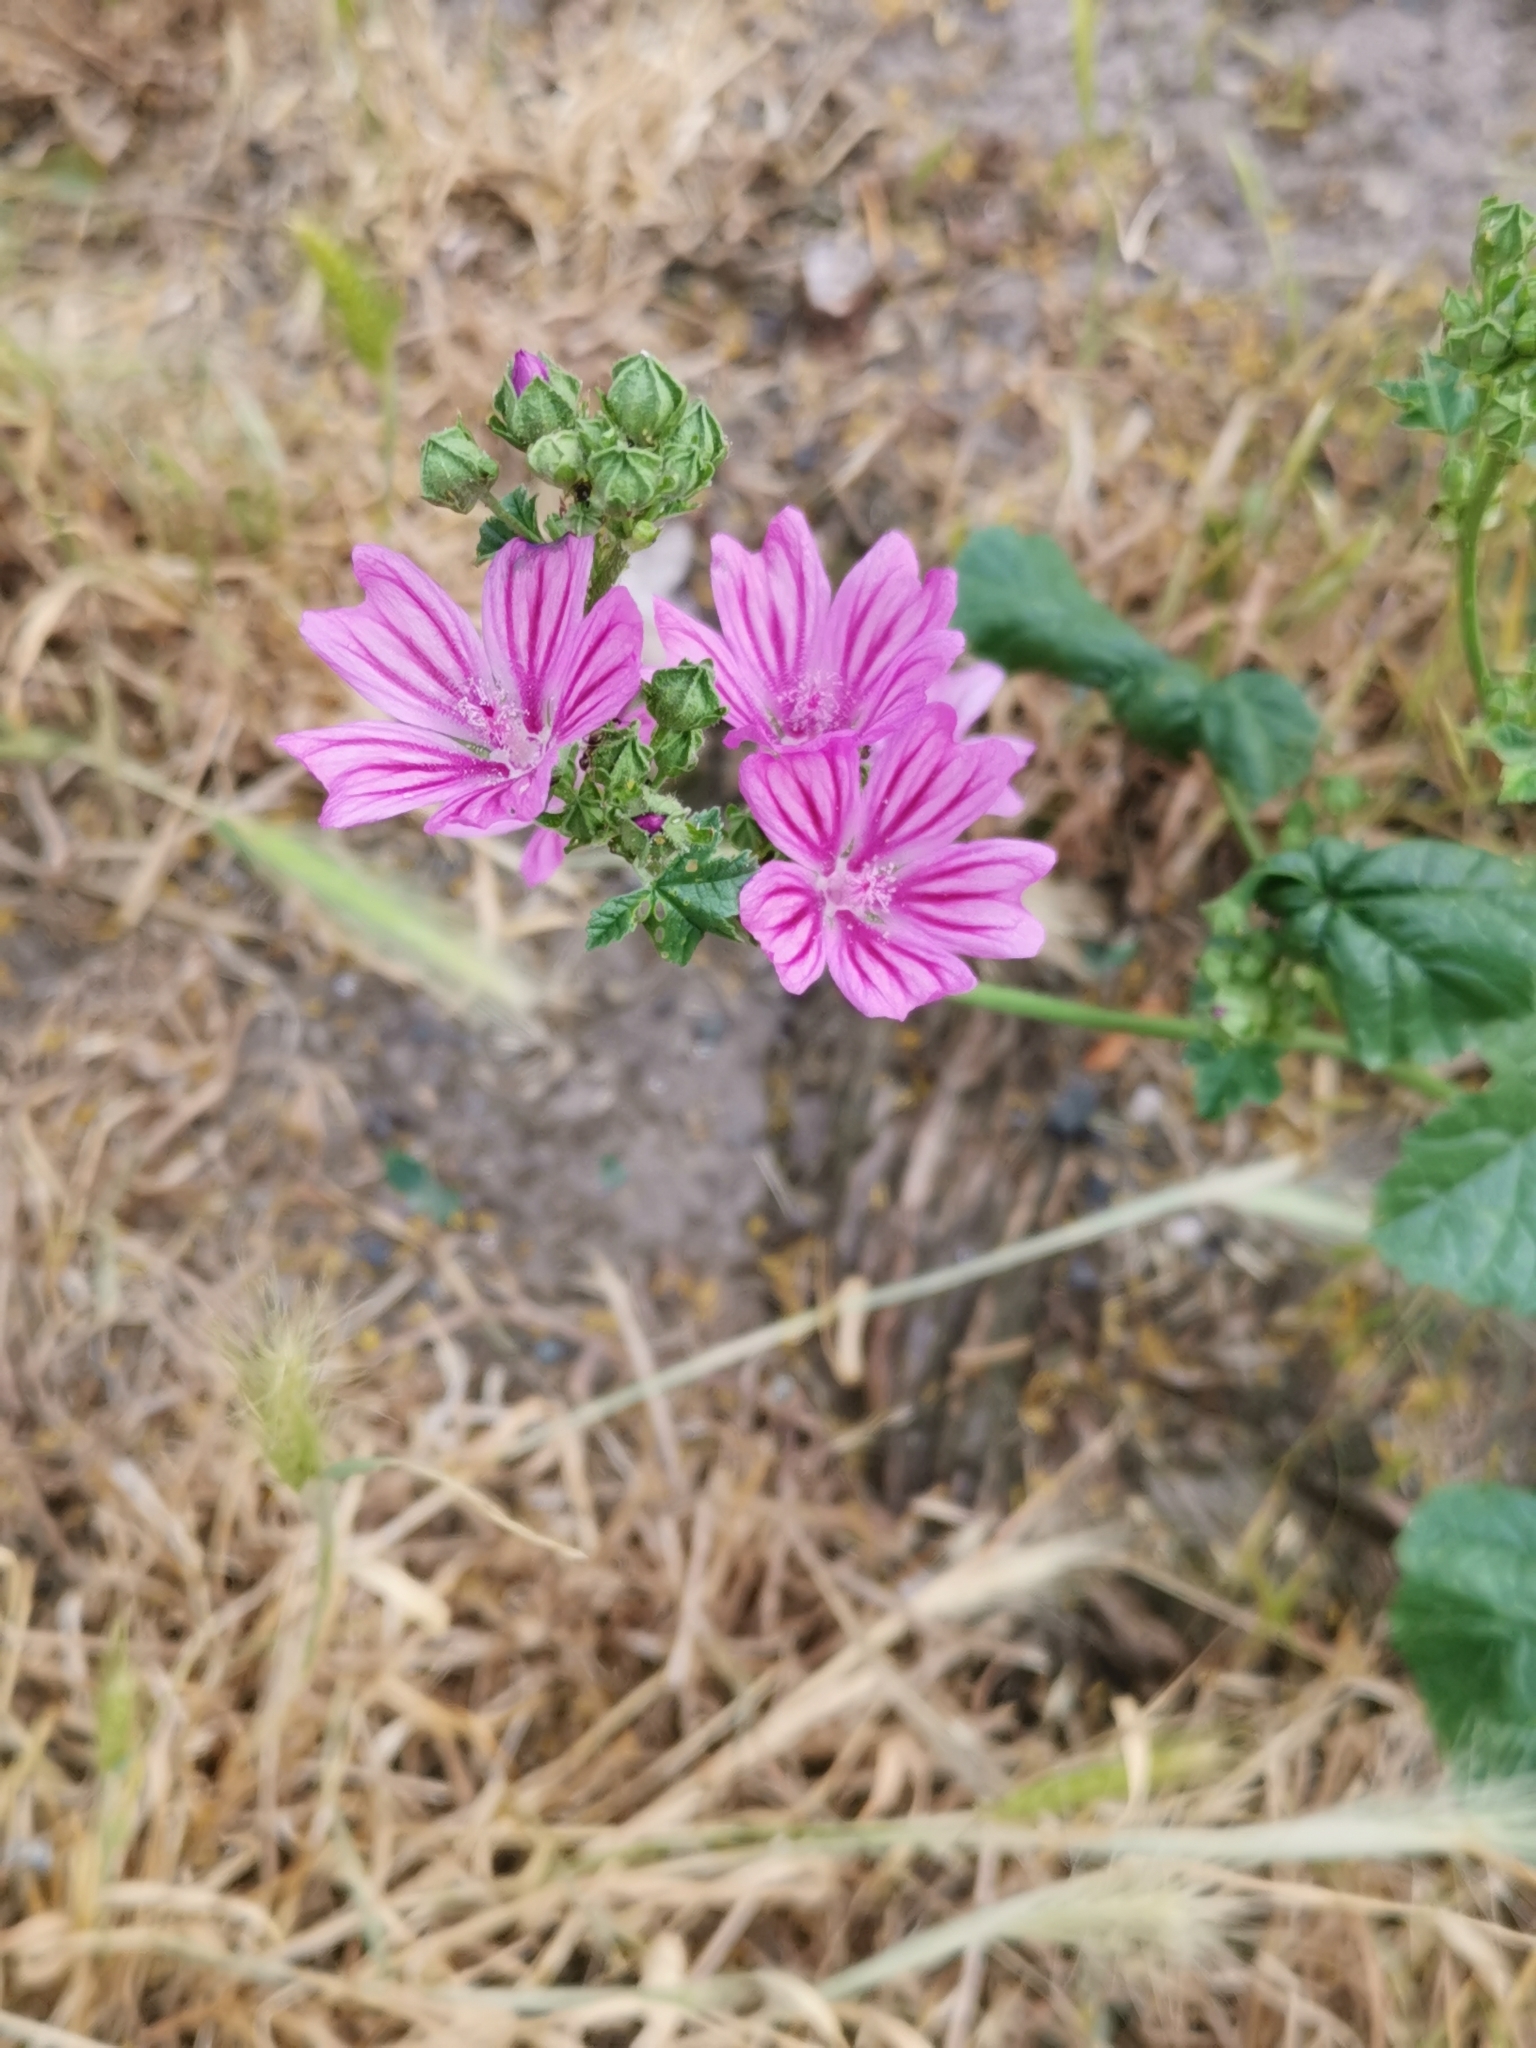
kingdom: Plantae
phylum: Tracheophyta
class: Magnoliopsida
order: Malvales
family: Malvaceae
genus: Malva
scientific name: Malva sylvestris
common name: Common mallow
